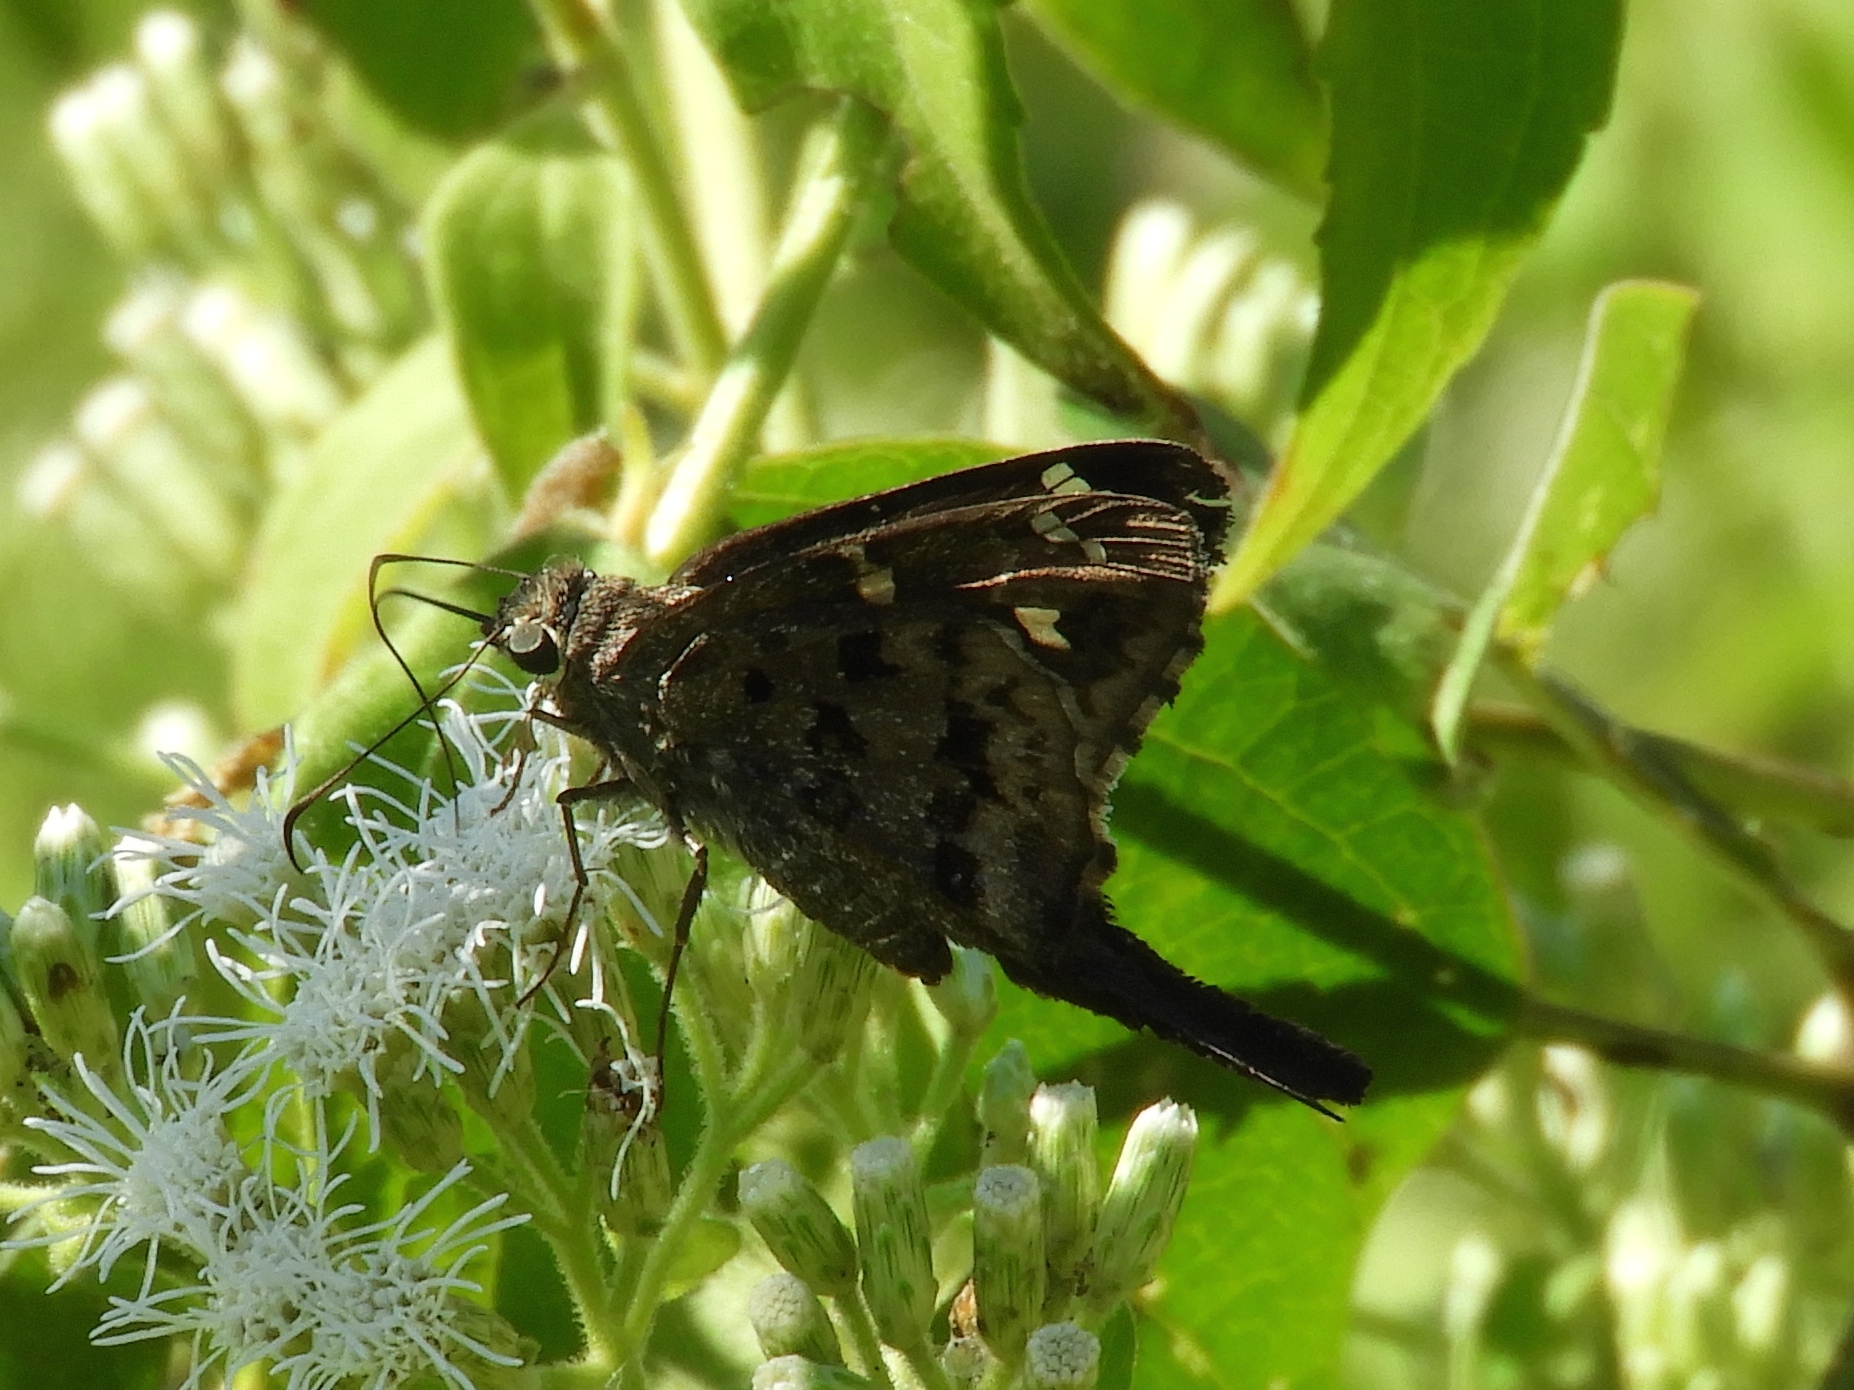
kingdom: Animalia
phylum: Arthropoda
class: Insecta
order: Lepidoptera
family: Hesperiidae
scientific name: Hesperiidae
